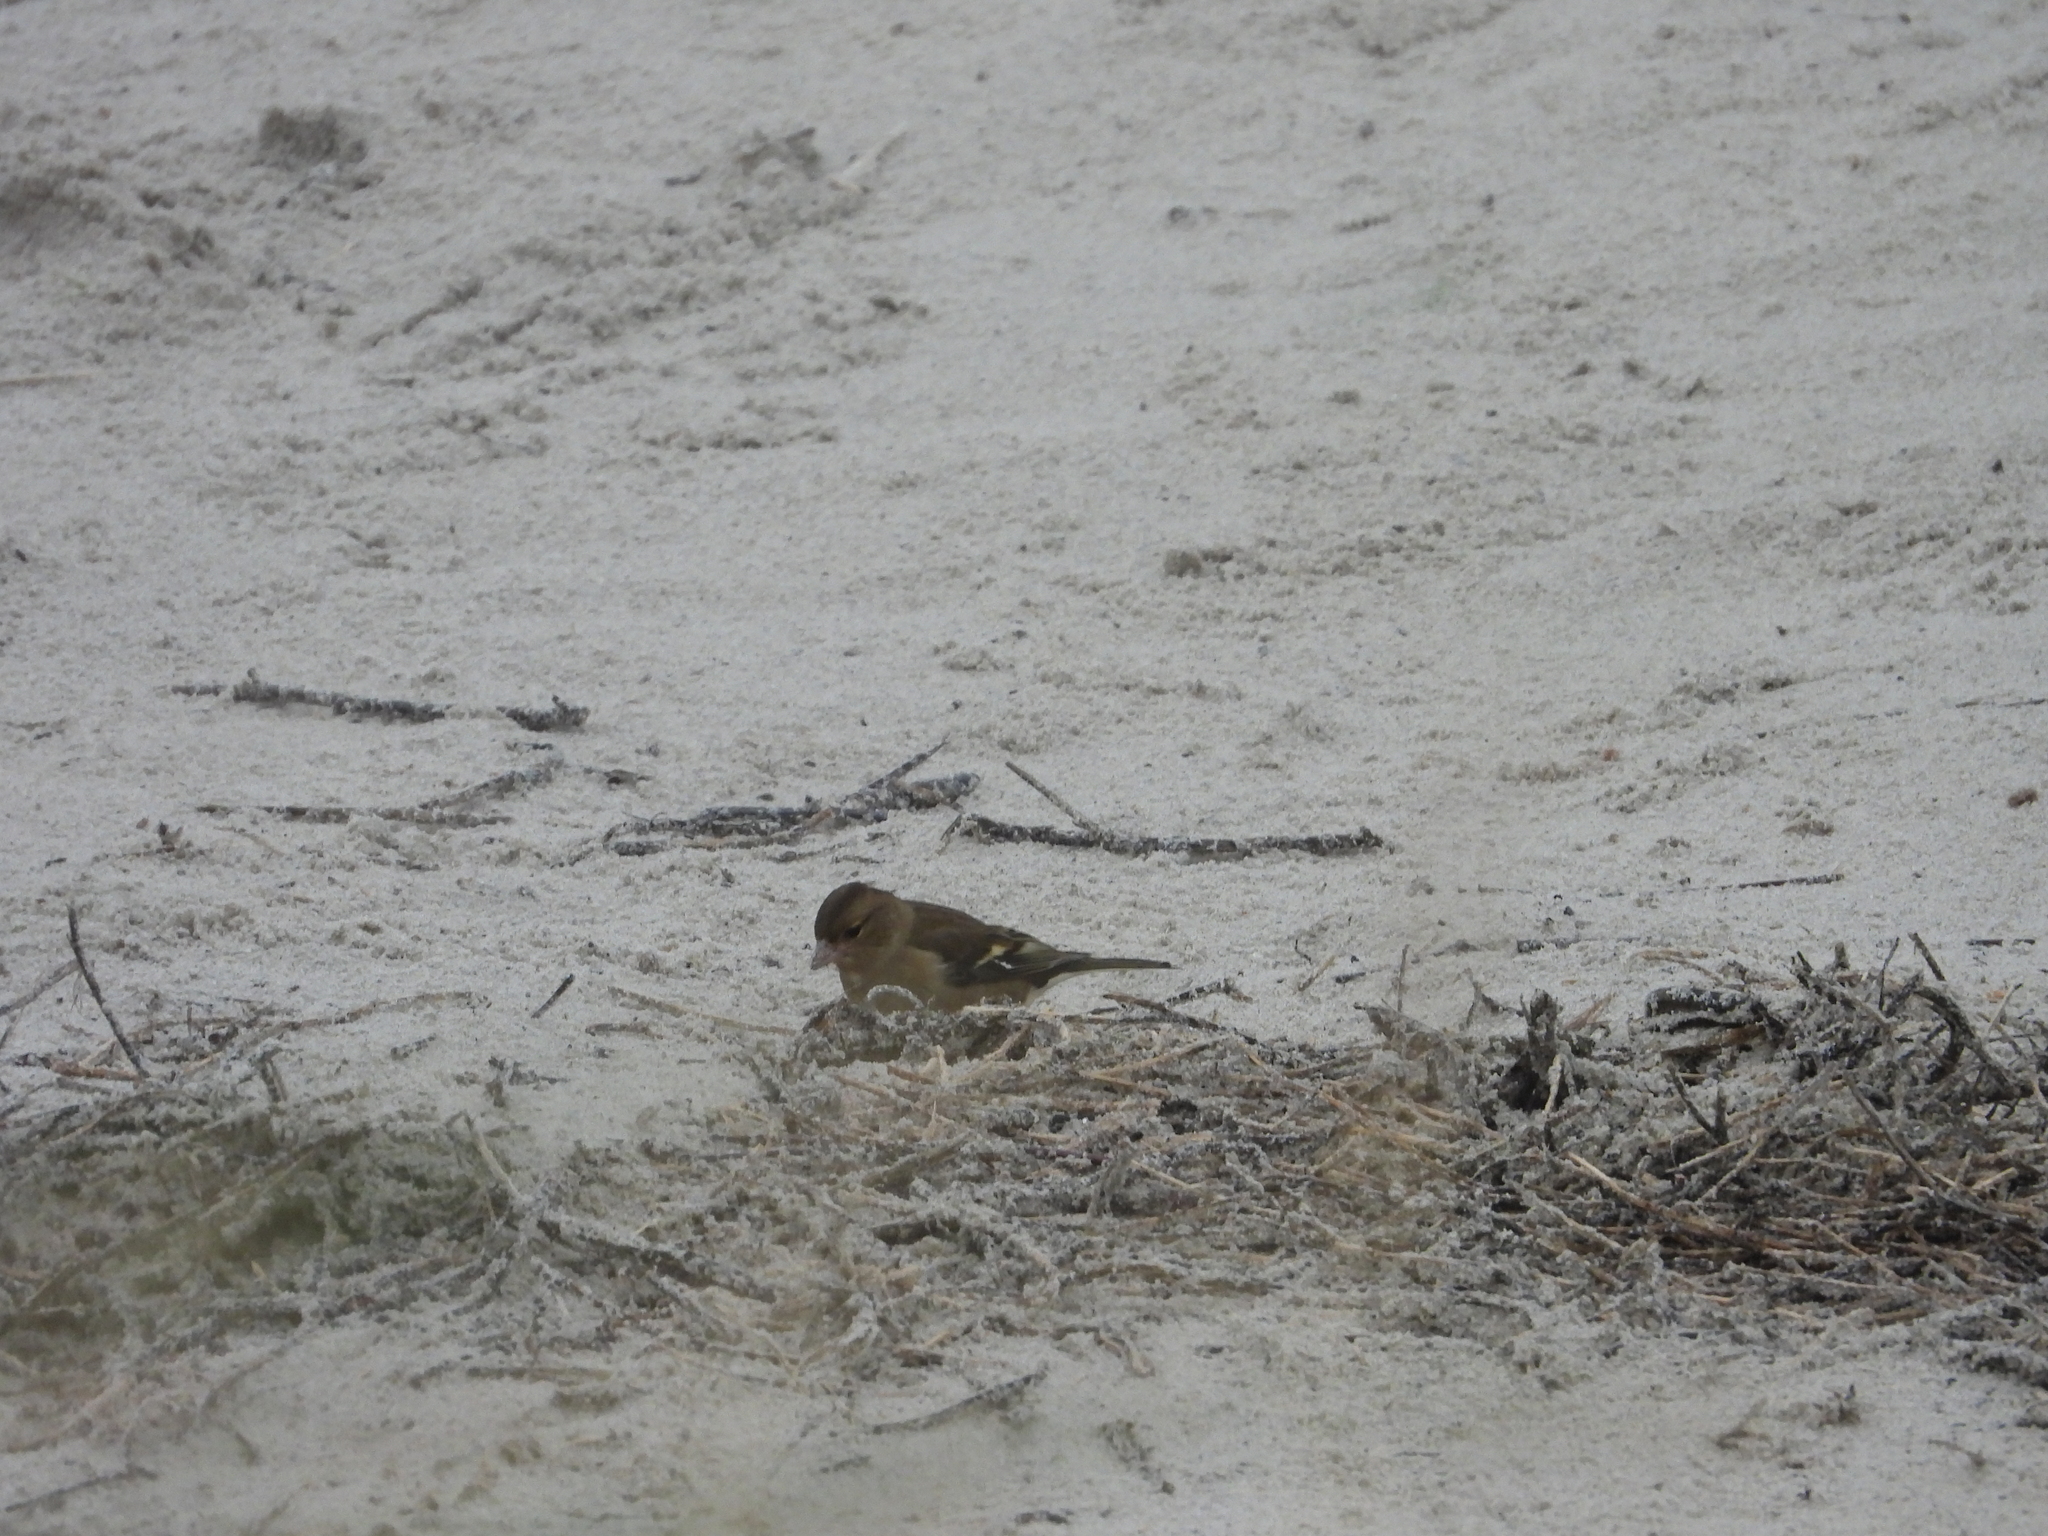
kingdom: Animalia
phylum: Chordata
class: Aves
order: Passeriformes
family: Fringillidae
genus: Fringilla
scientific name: Fringilla coelebs
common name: Common chaffinch
